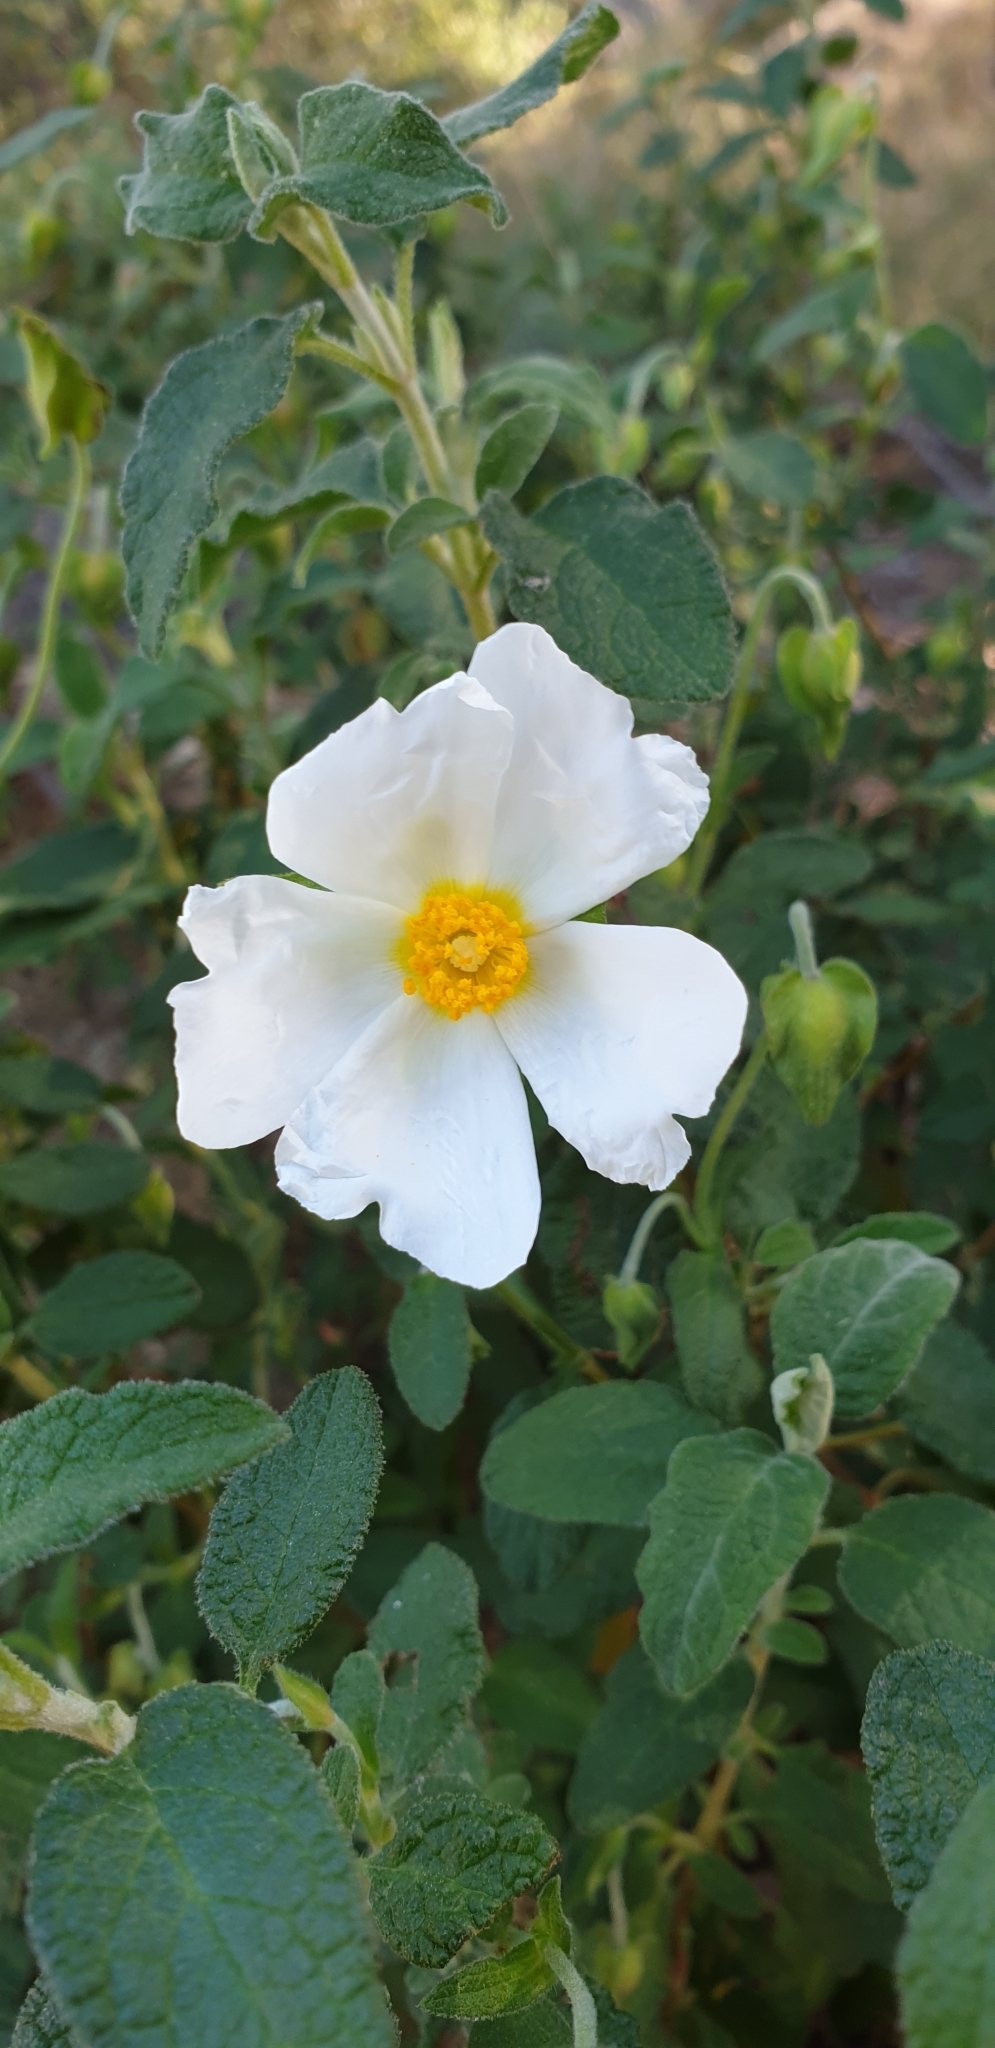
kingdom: Plantae
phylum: Tracheophyta
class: Magnoliopsida
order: Malvales
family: Cistaceae
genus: Cistus
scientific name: Cistus salviifolius
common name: Salvia cistus
